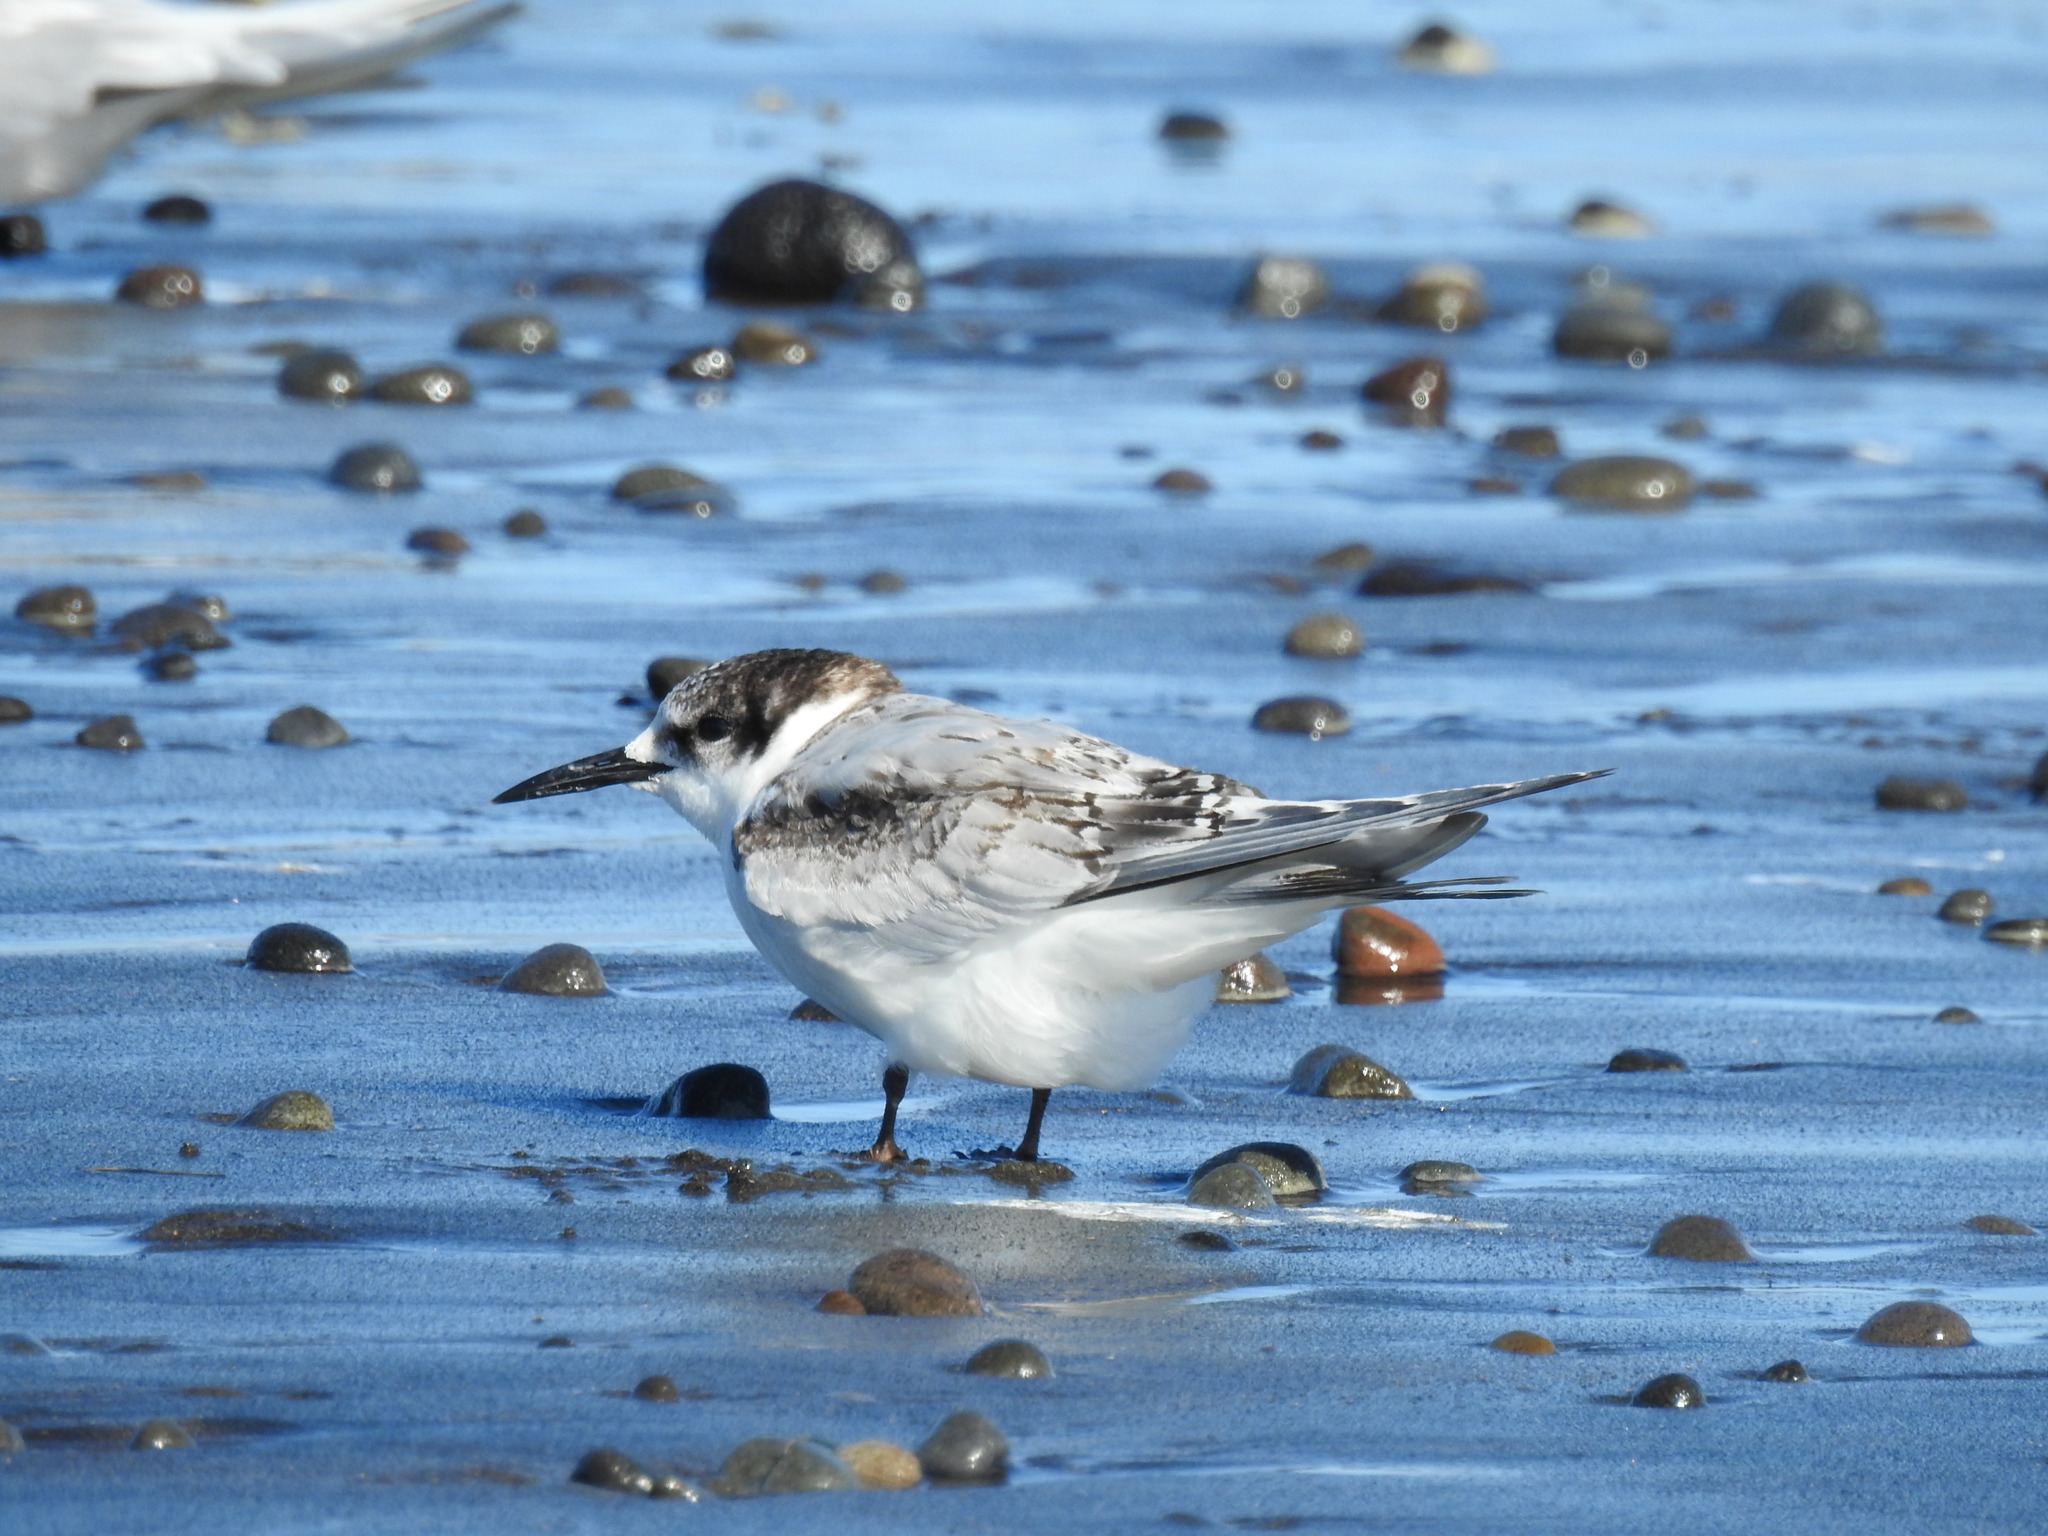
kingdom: Animalia
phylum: Chordata
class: Aves
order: Charadriiformes
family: Laridae
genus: Sterna
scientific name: Sterna striata
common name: White-fronted tern
